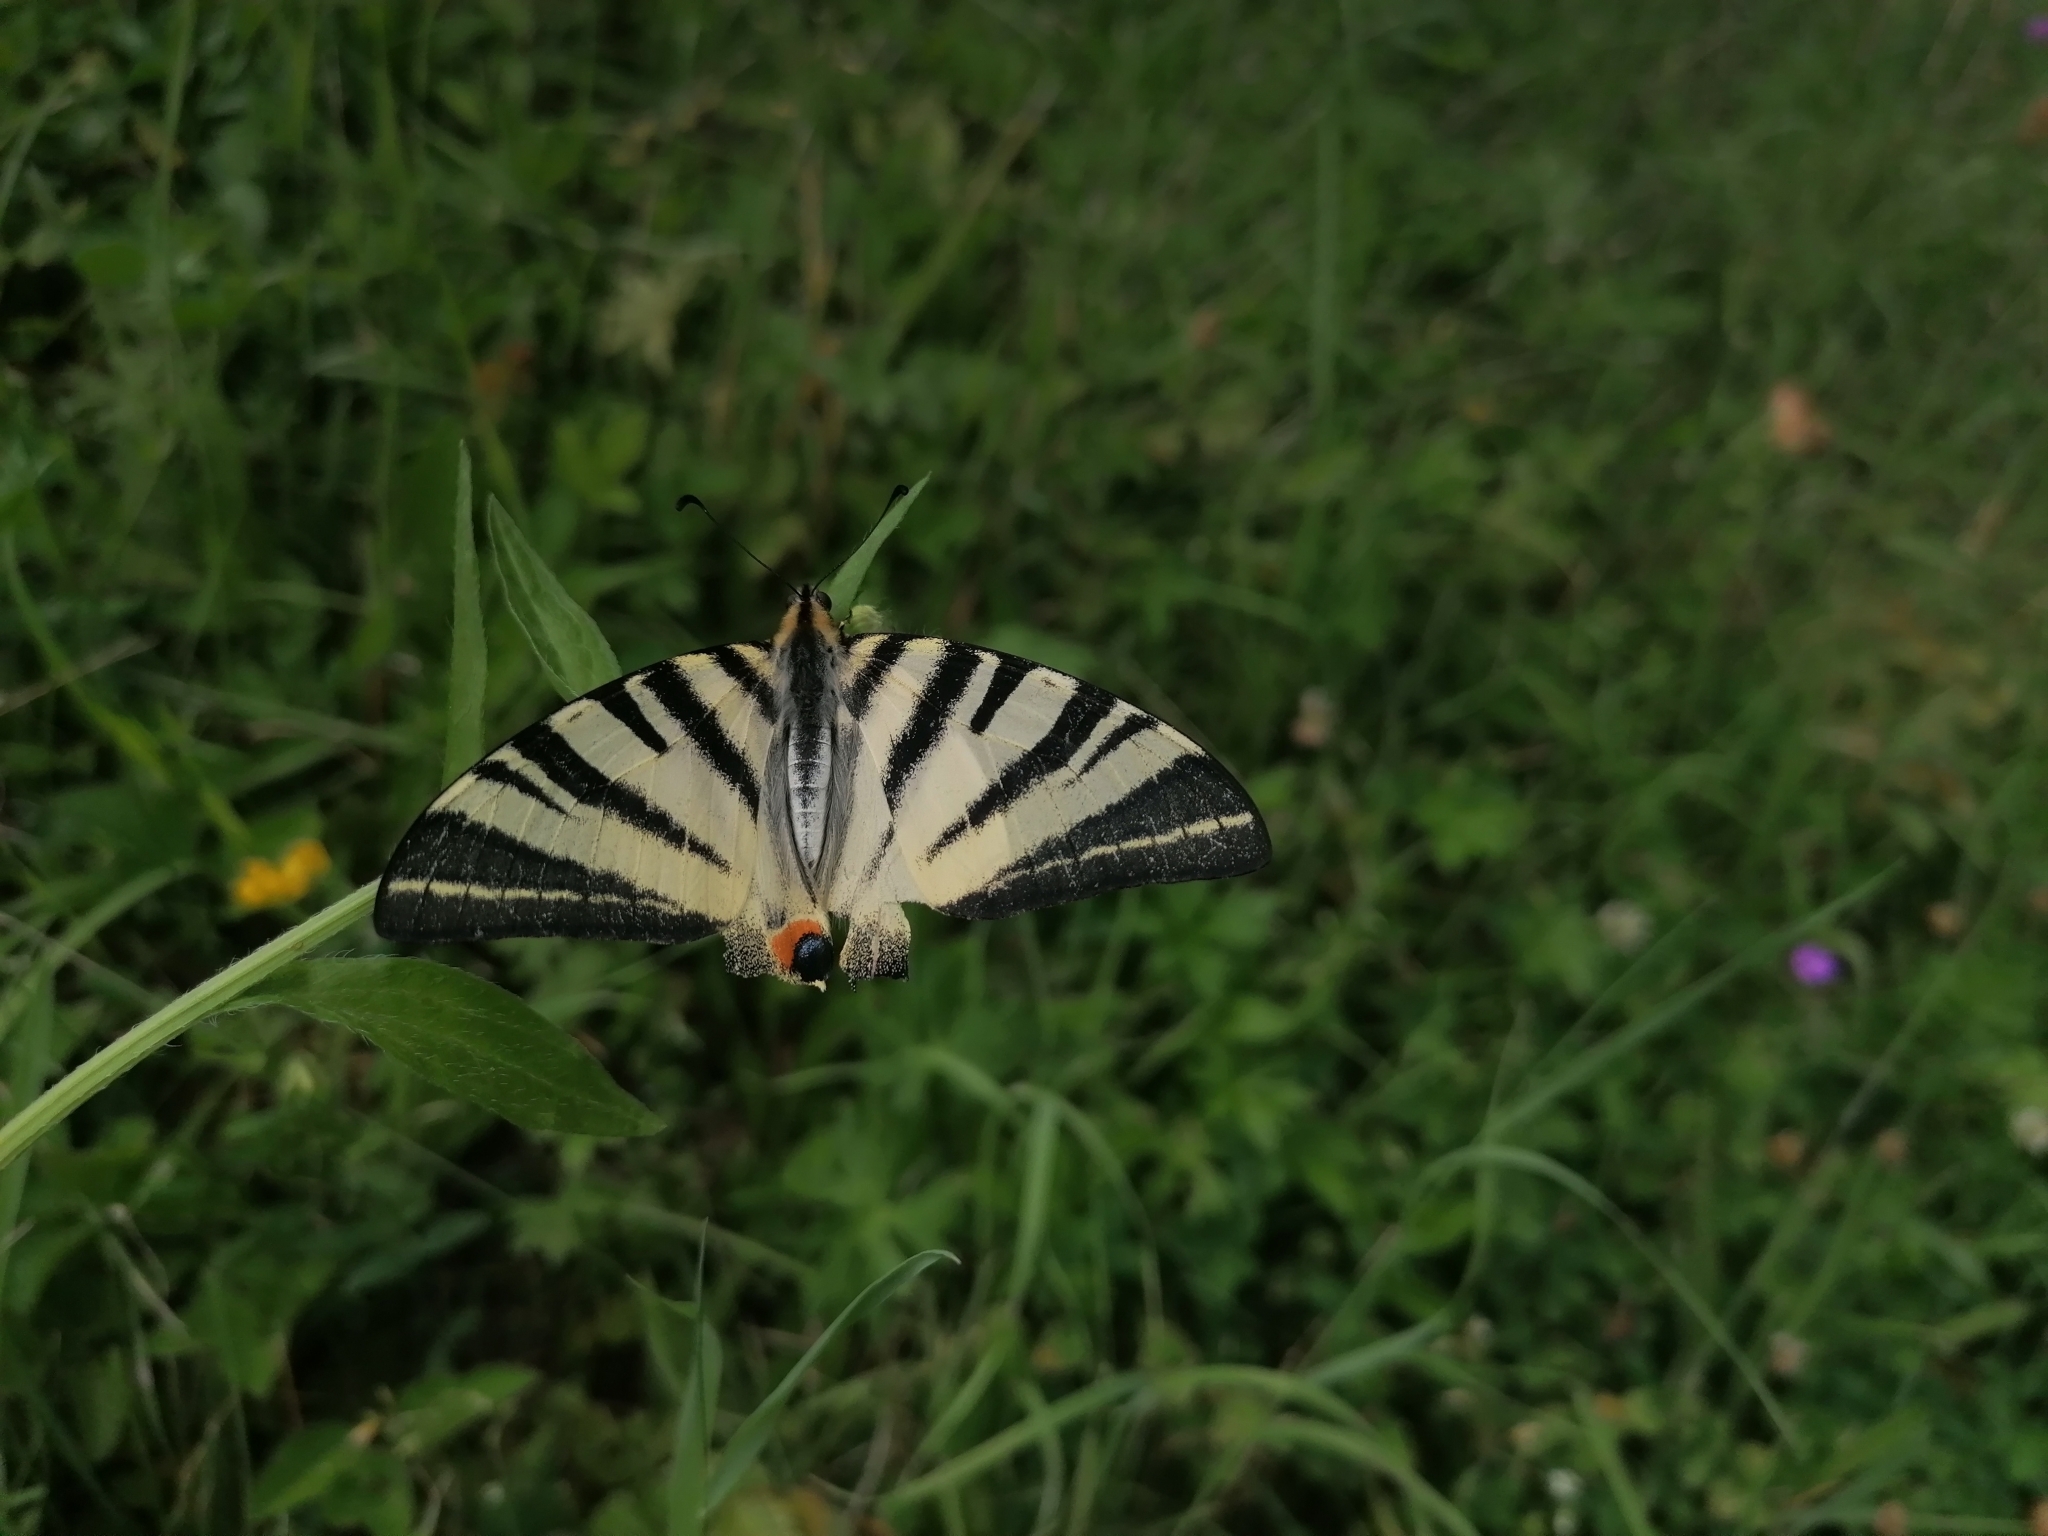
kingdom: Animalia
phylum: Arthropoda
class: Insecta
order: Lepidoptera
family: Papilionidae
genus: Iphiclides
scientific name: Iphiclides podalirius
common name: Scarce swallowtail
